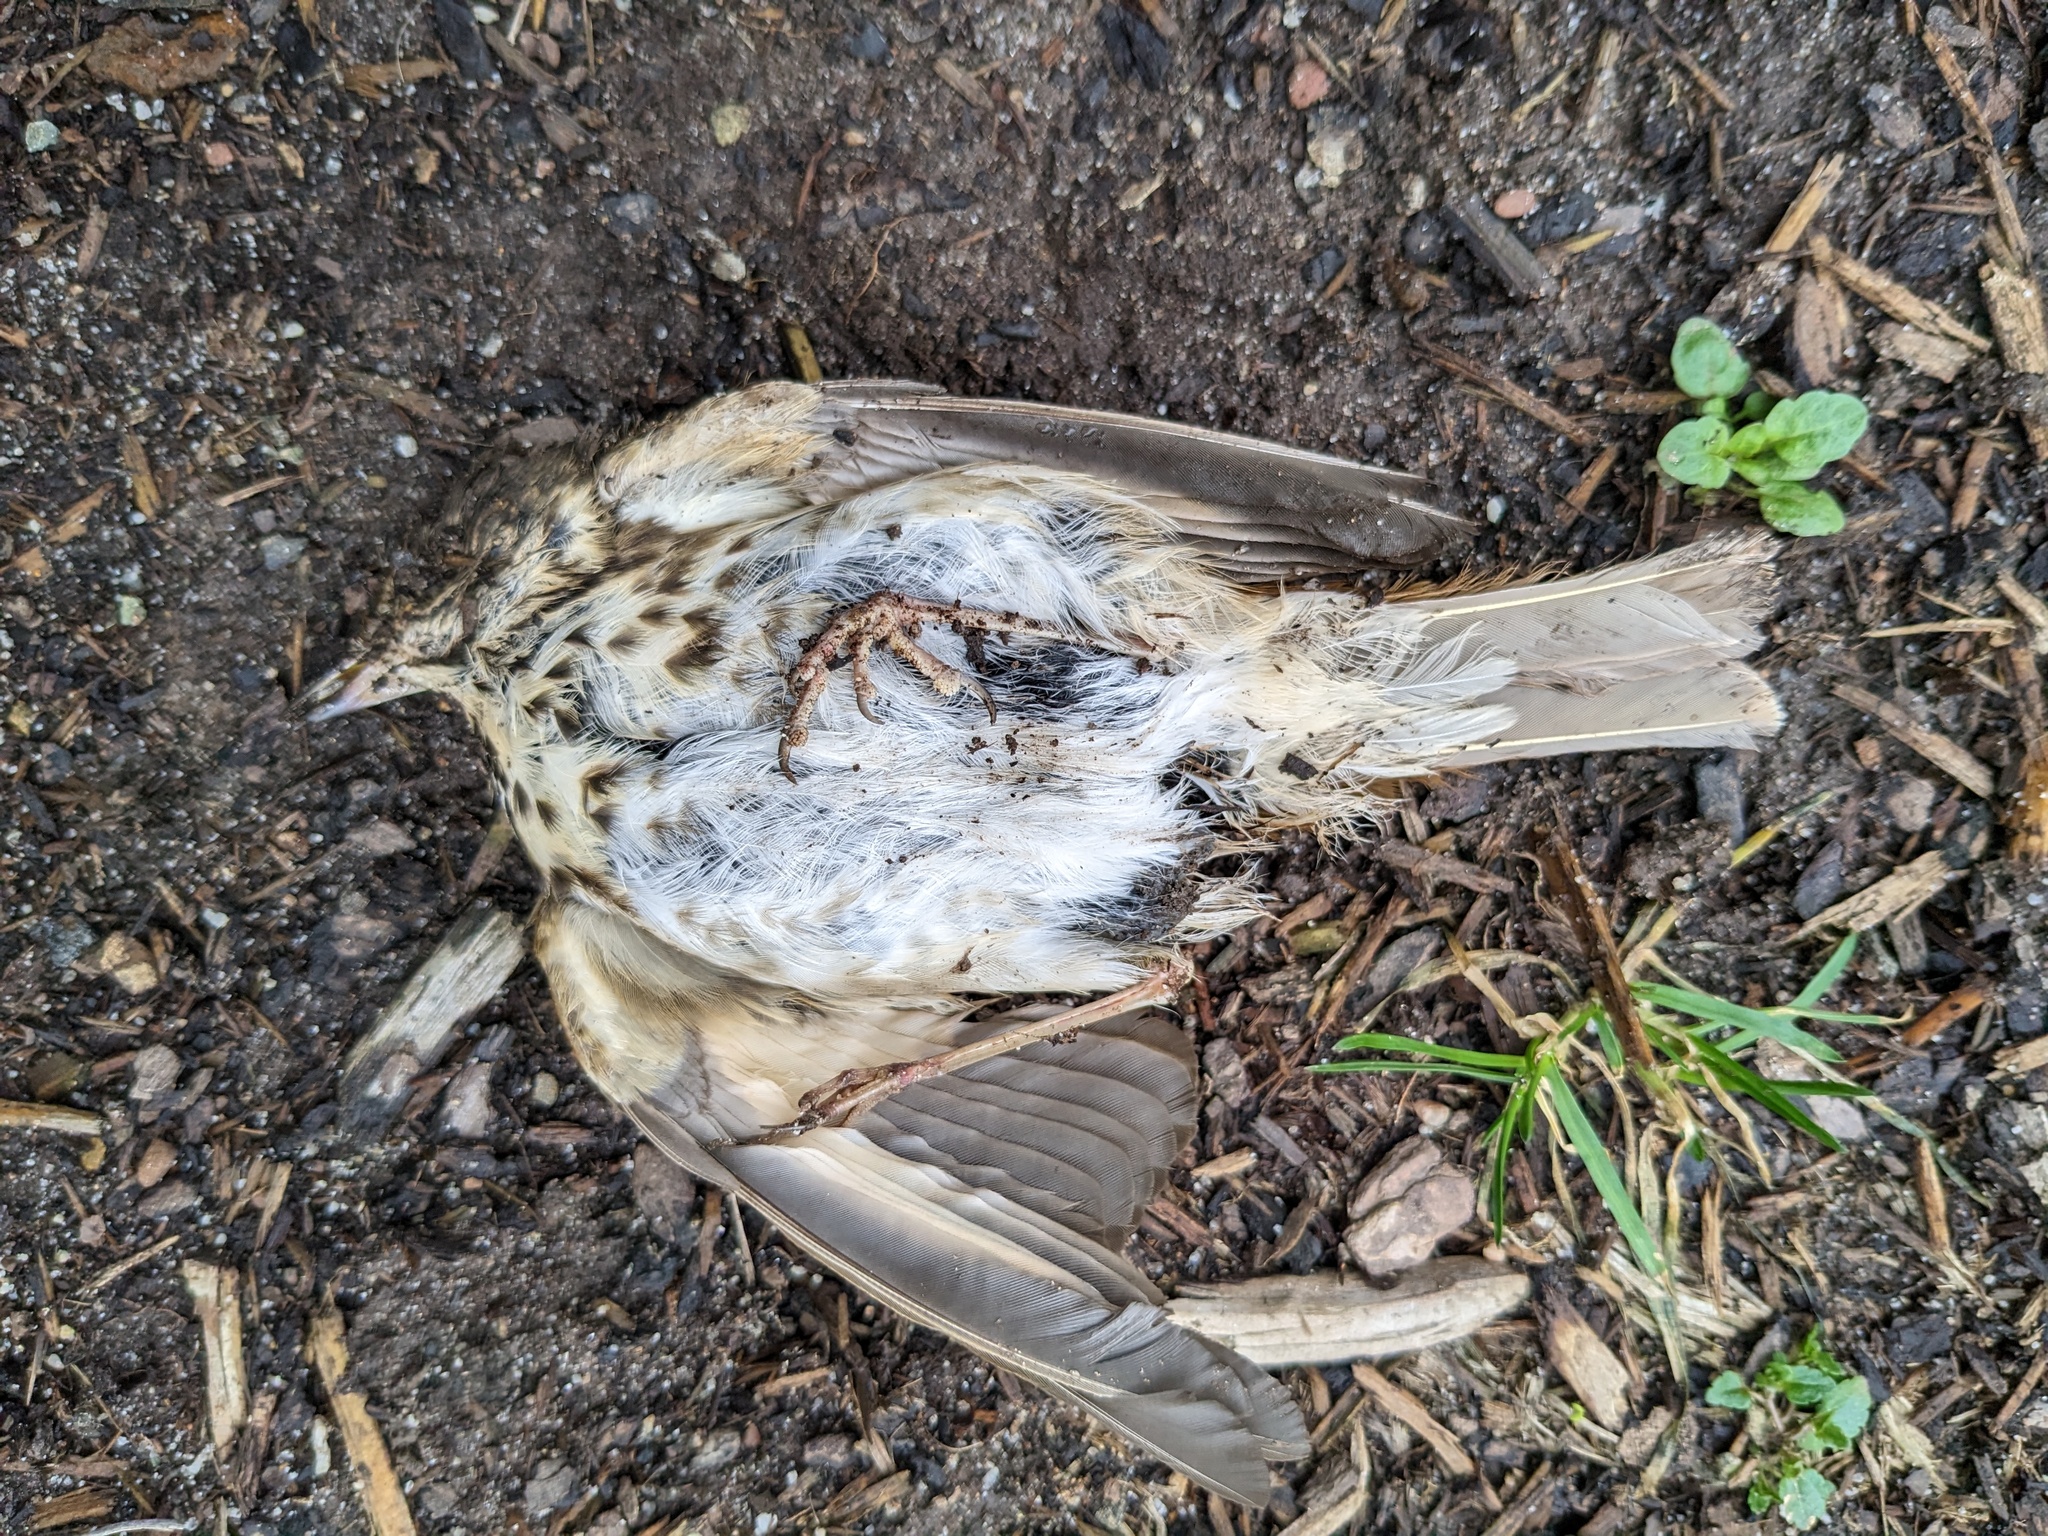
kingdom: Animalia
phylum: Chordata
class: Aves
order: Passeriformes
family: Turdidae
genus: Catharus
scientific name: Catharus guttatus
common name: Hermit thrush
